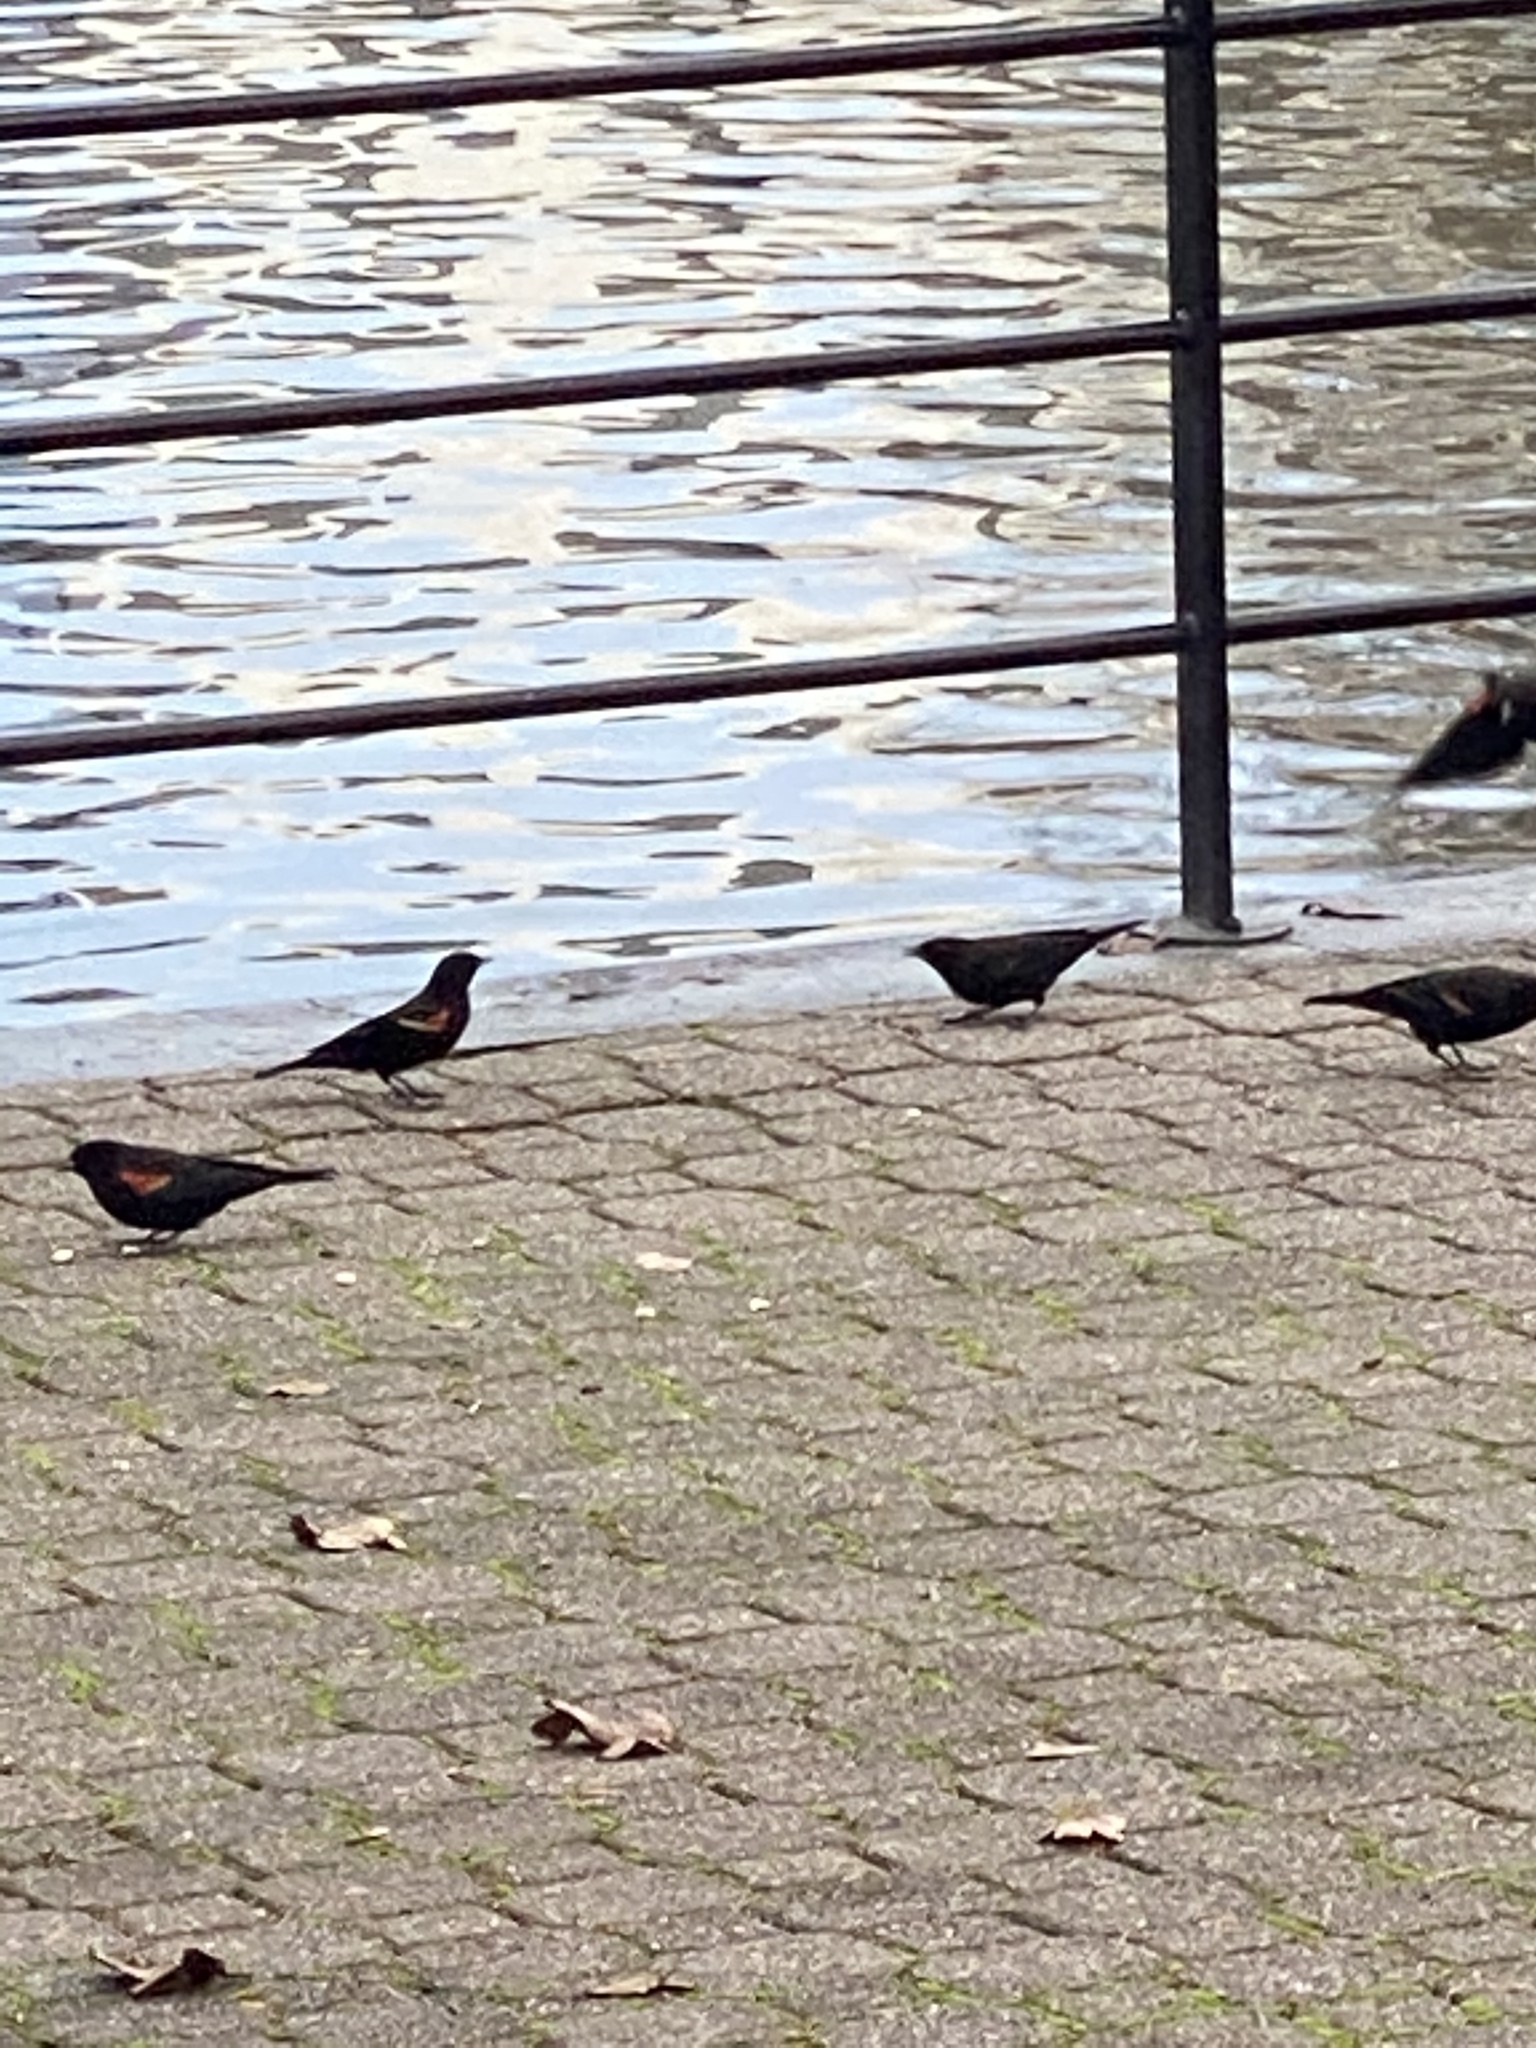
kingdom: Animalia
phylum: Chordata
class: Aves
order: Passeriformes
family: Icteridae
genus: Agelaius
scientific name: Agelaius phoeniceus
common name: Red-winged blackbird
